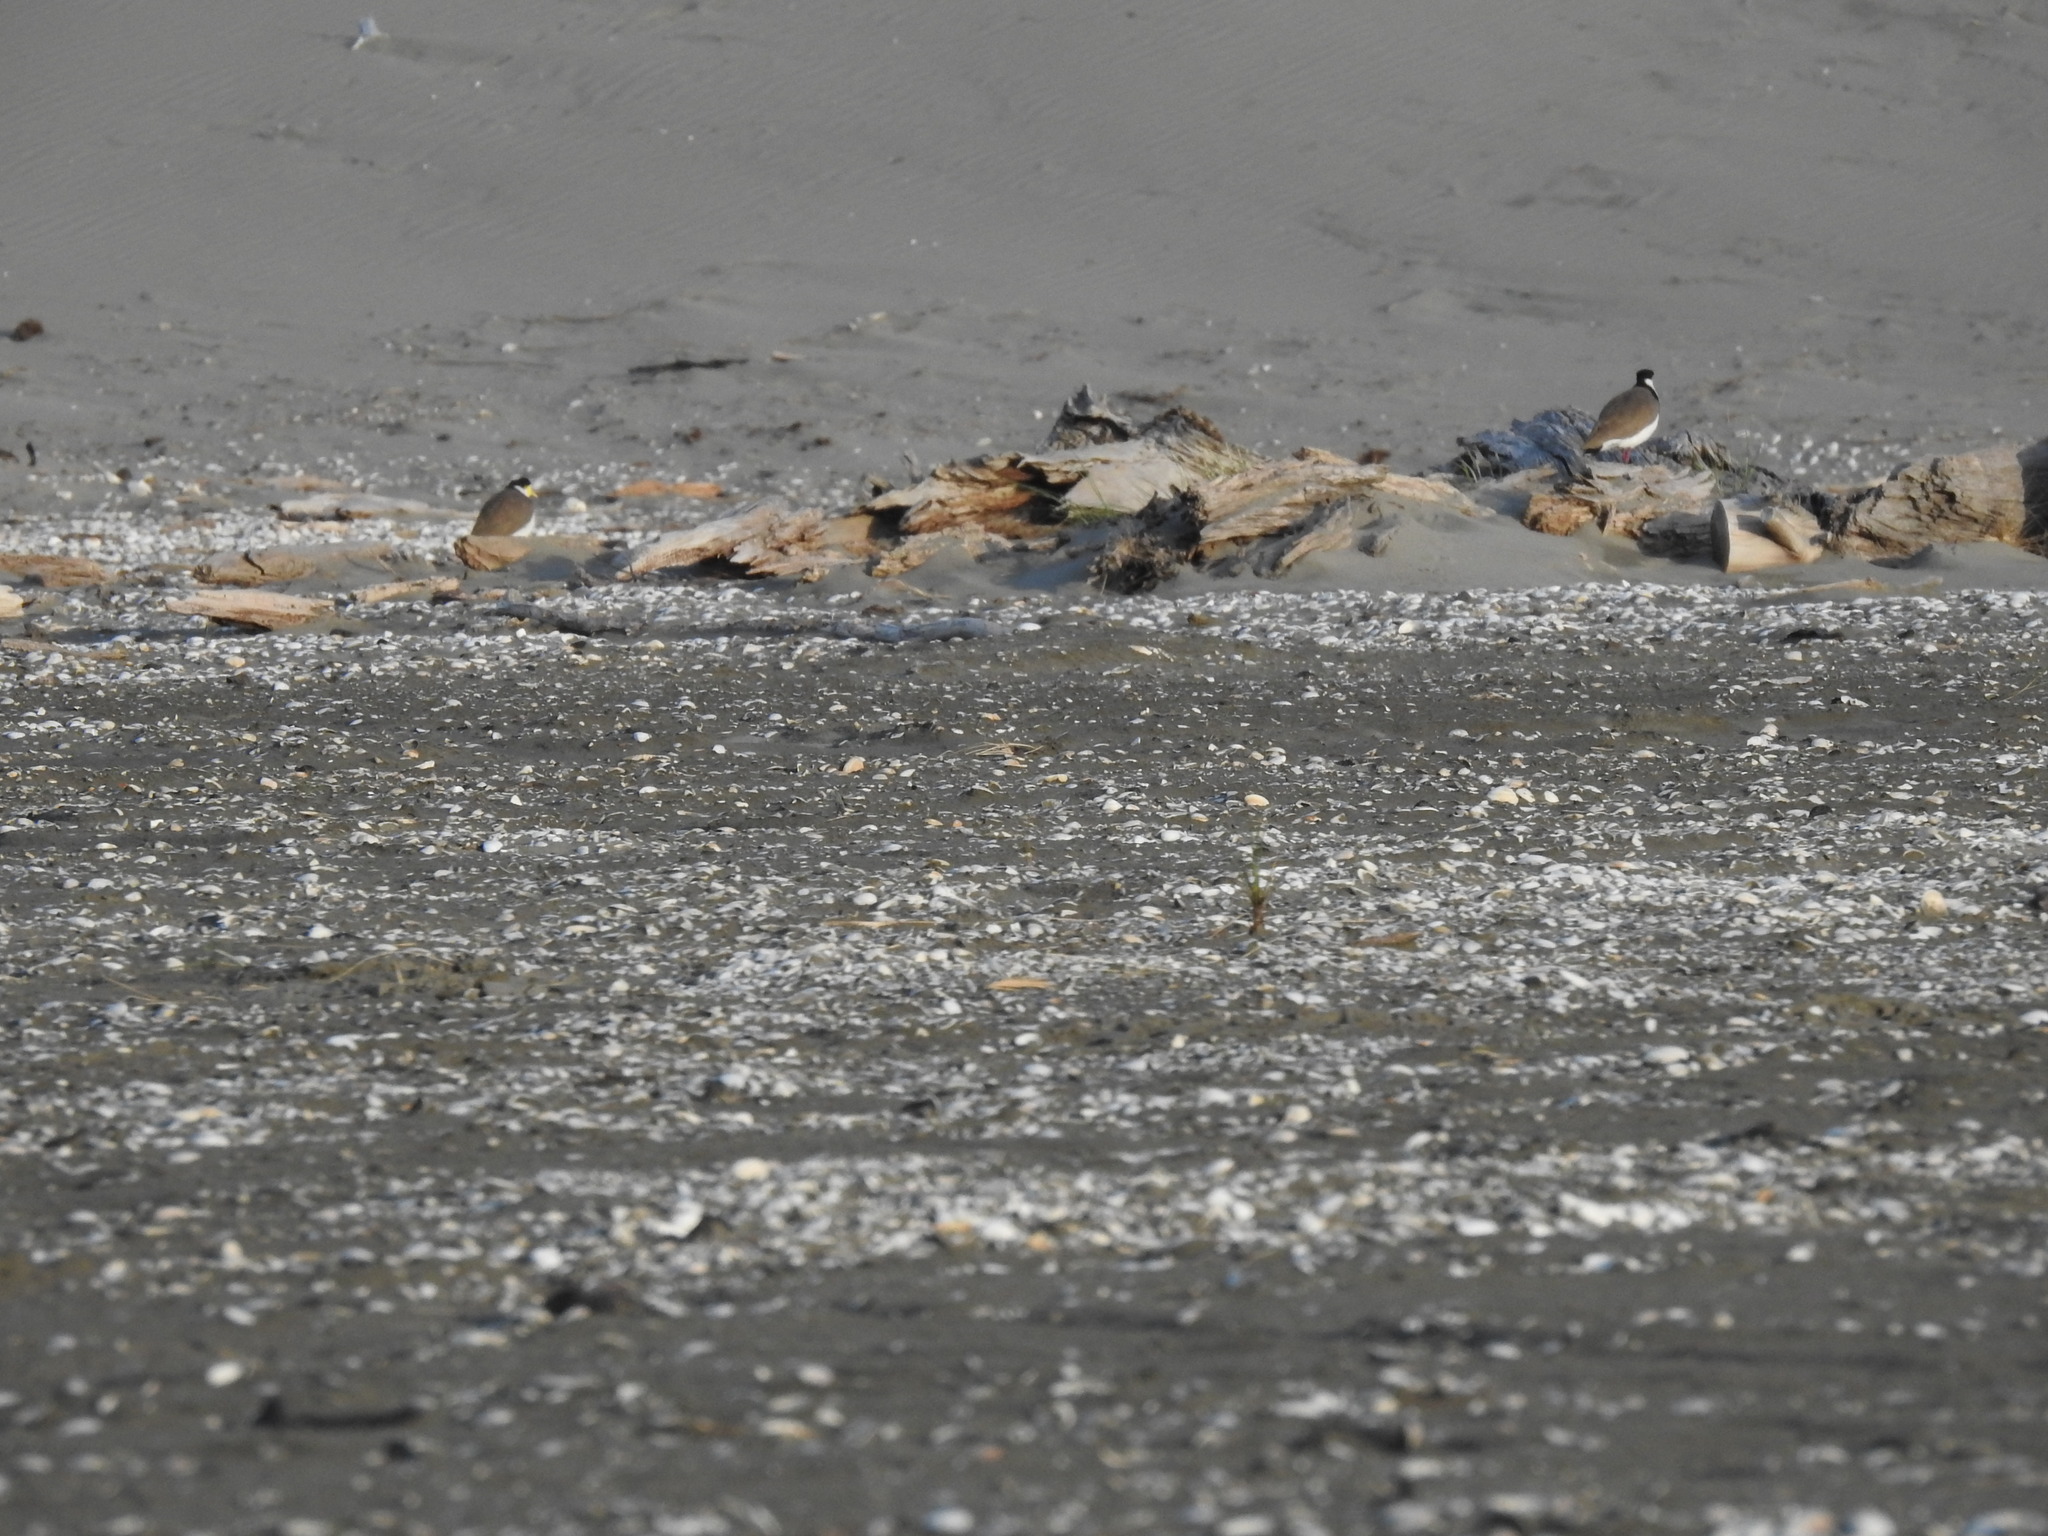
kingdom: Animalia
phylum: Chordata
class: Aves
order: Charadriiformes
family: Charadriidae
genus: Vanellus
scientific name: Vanellus miles
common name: Masked lapwing
